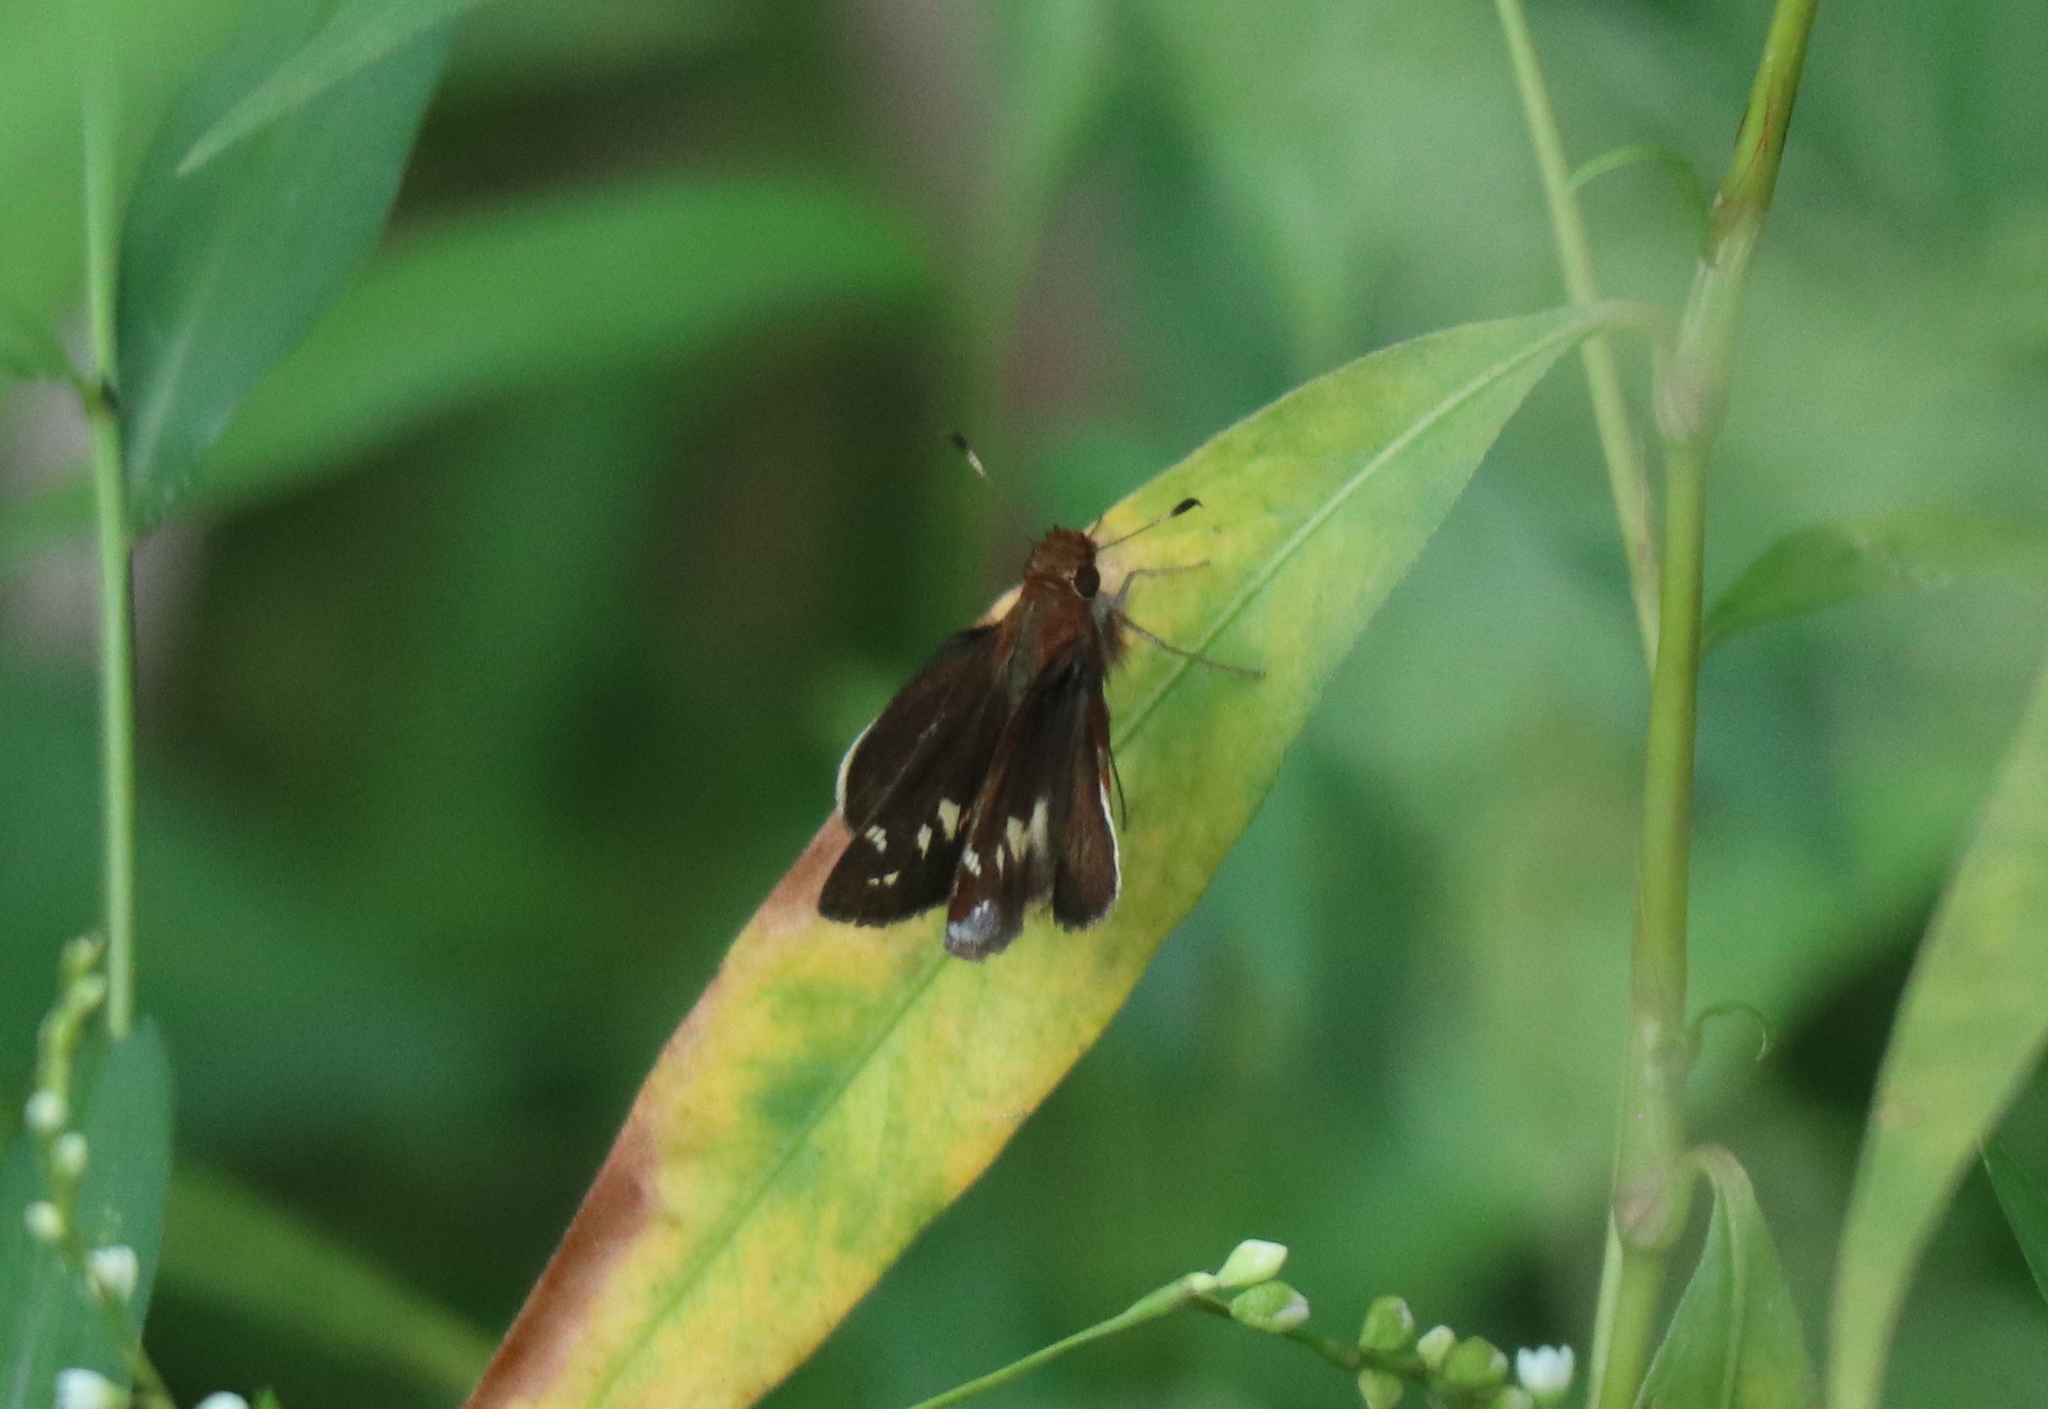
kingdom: Animalia
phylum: Arthropoda
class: Insecta
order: Lepidoptera
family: Hesperiidae
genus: Lon
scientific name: Lon zabulon
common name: Zabulon skipper
